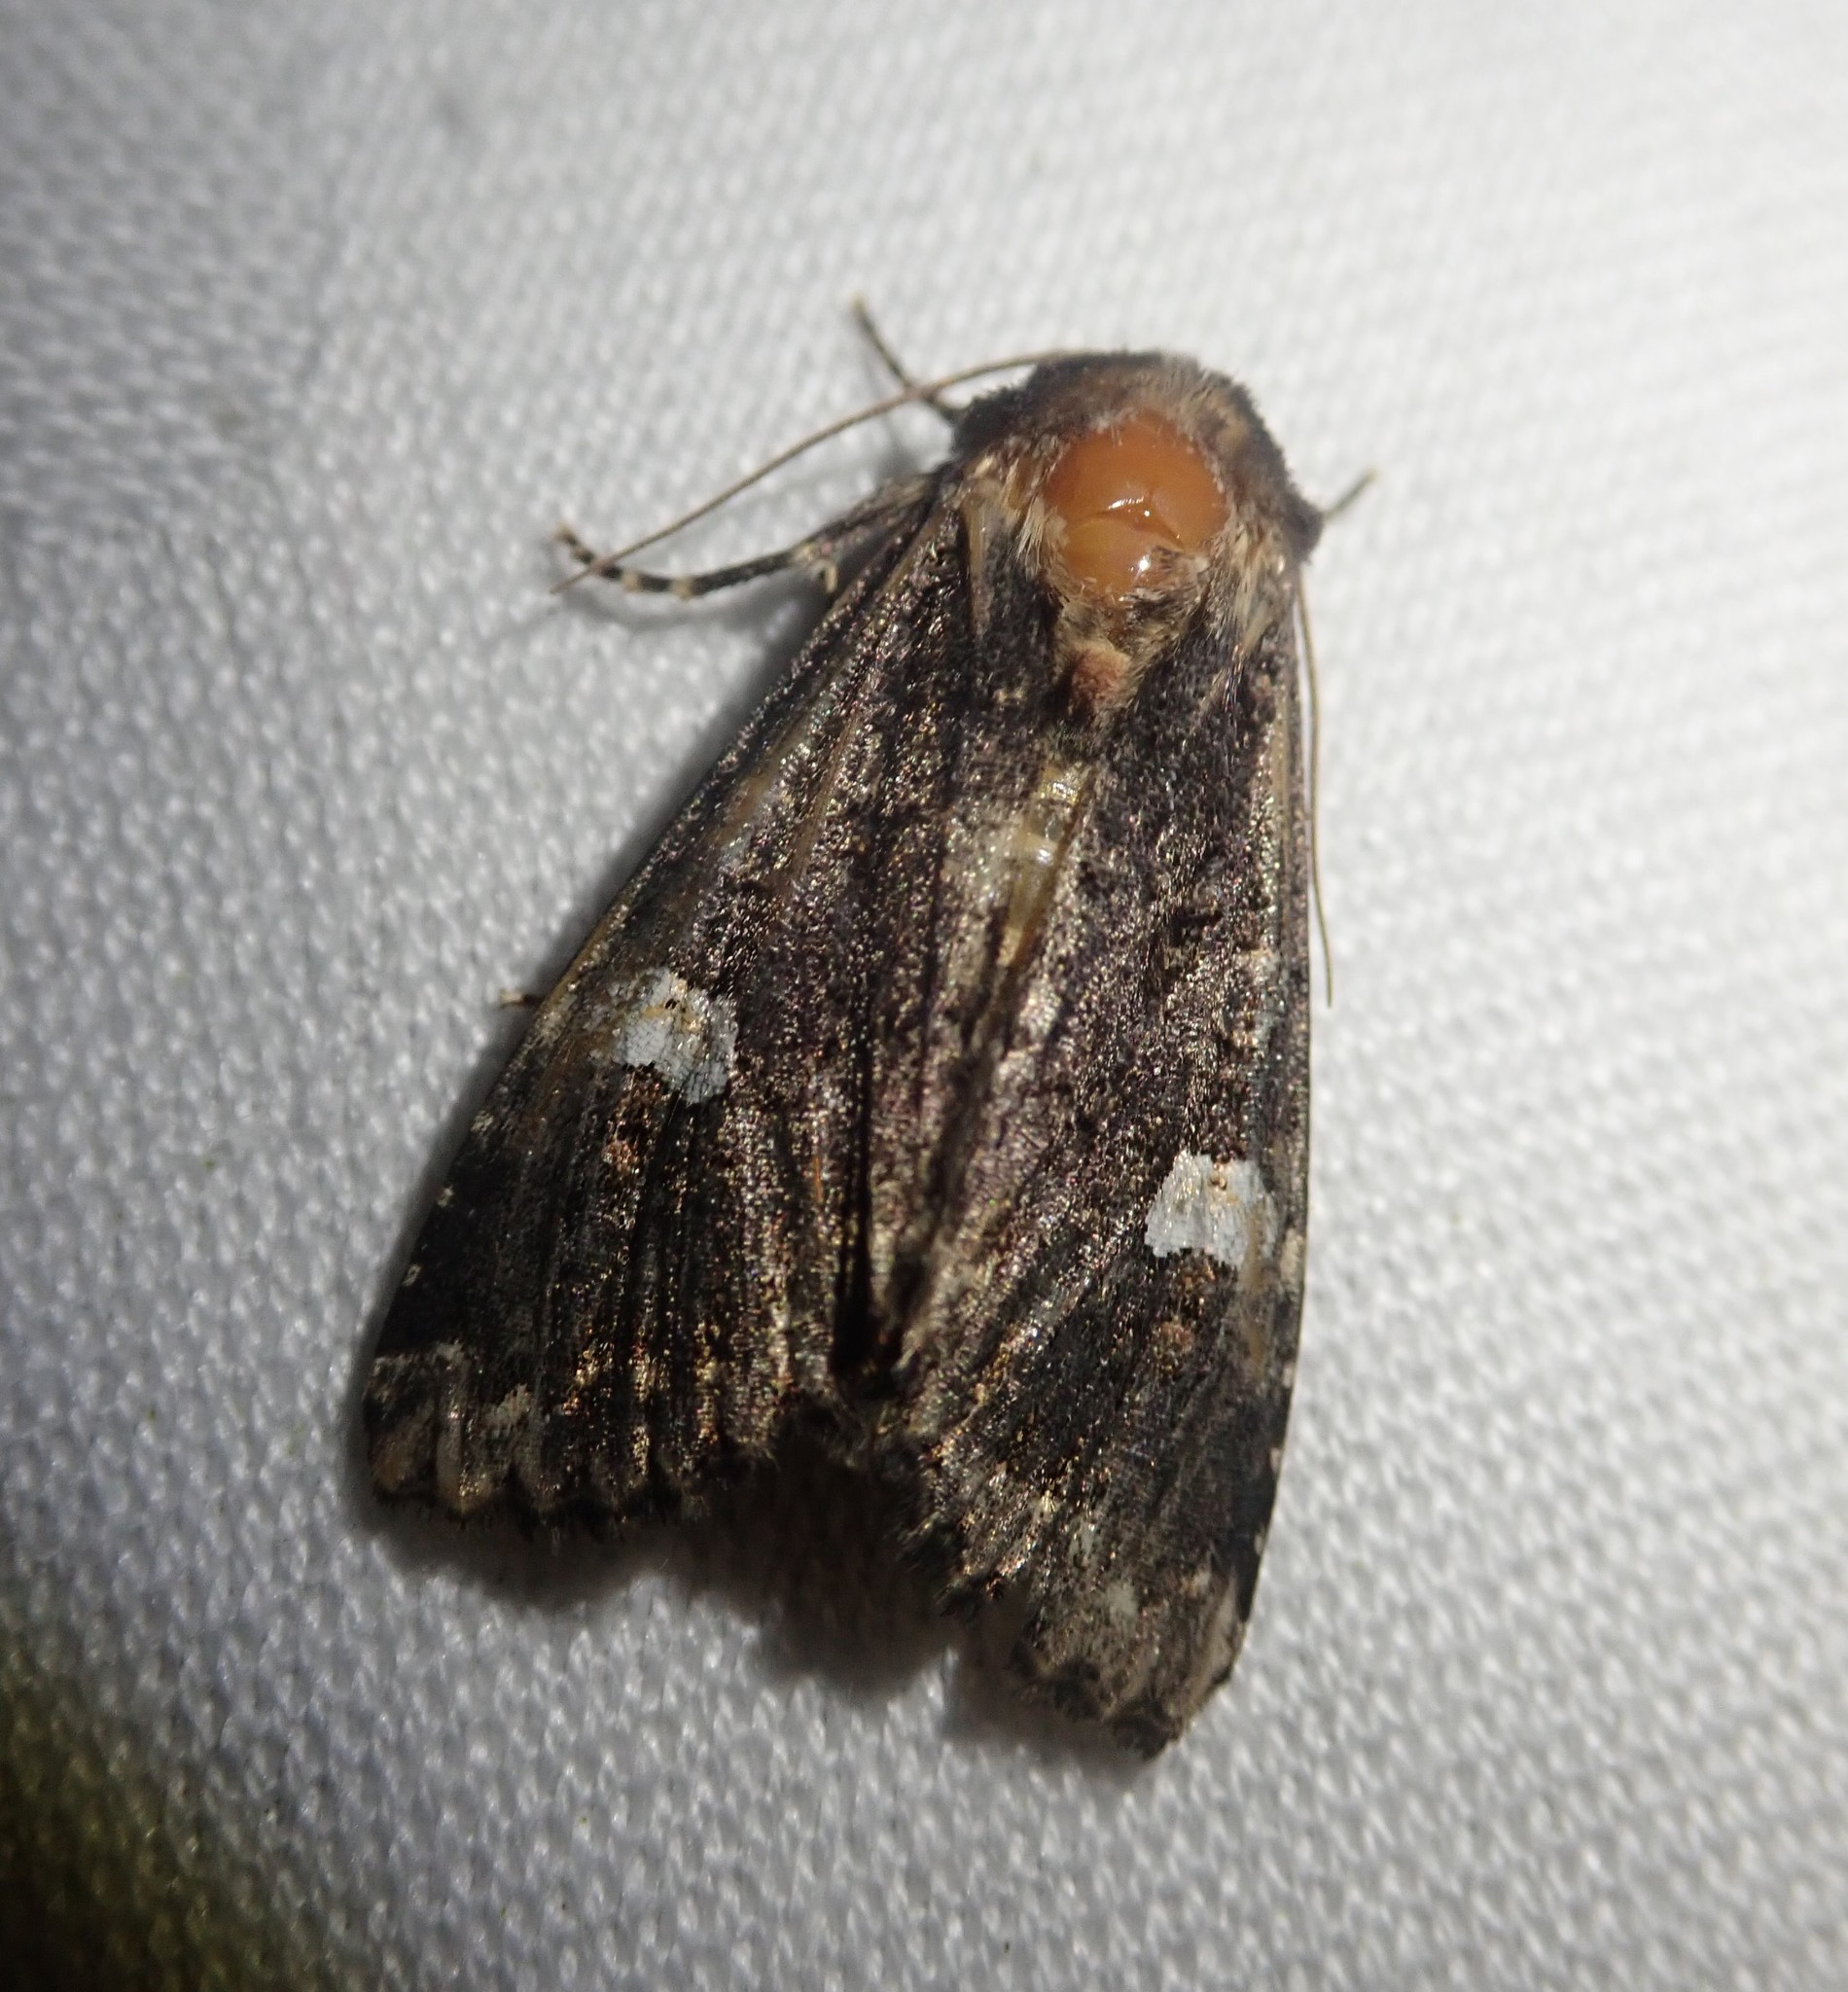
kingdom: Animalia
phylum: Arthropoda
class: Insecta
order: Lepidoptera
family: Noctuidae
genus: Melanchra
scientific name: Melanchra persicariae
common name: Dot moth
